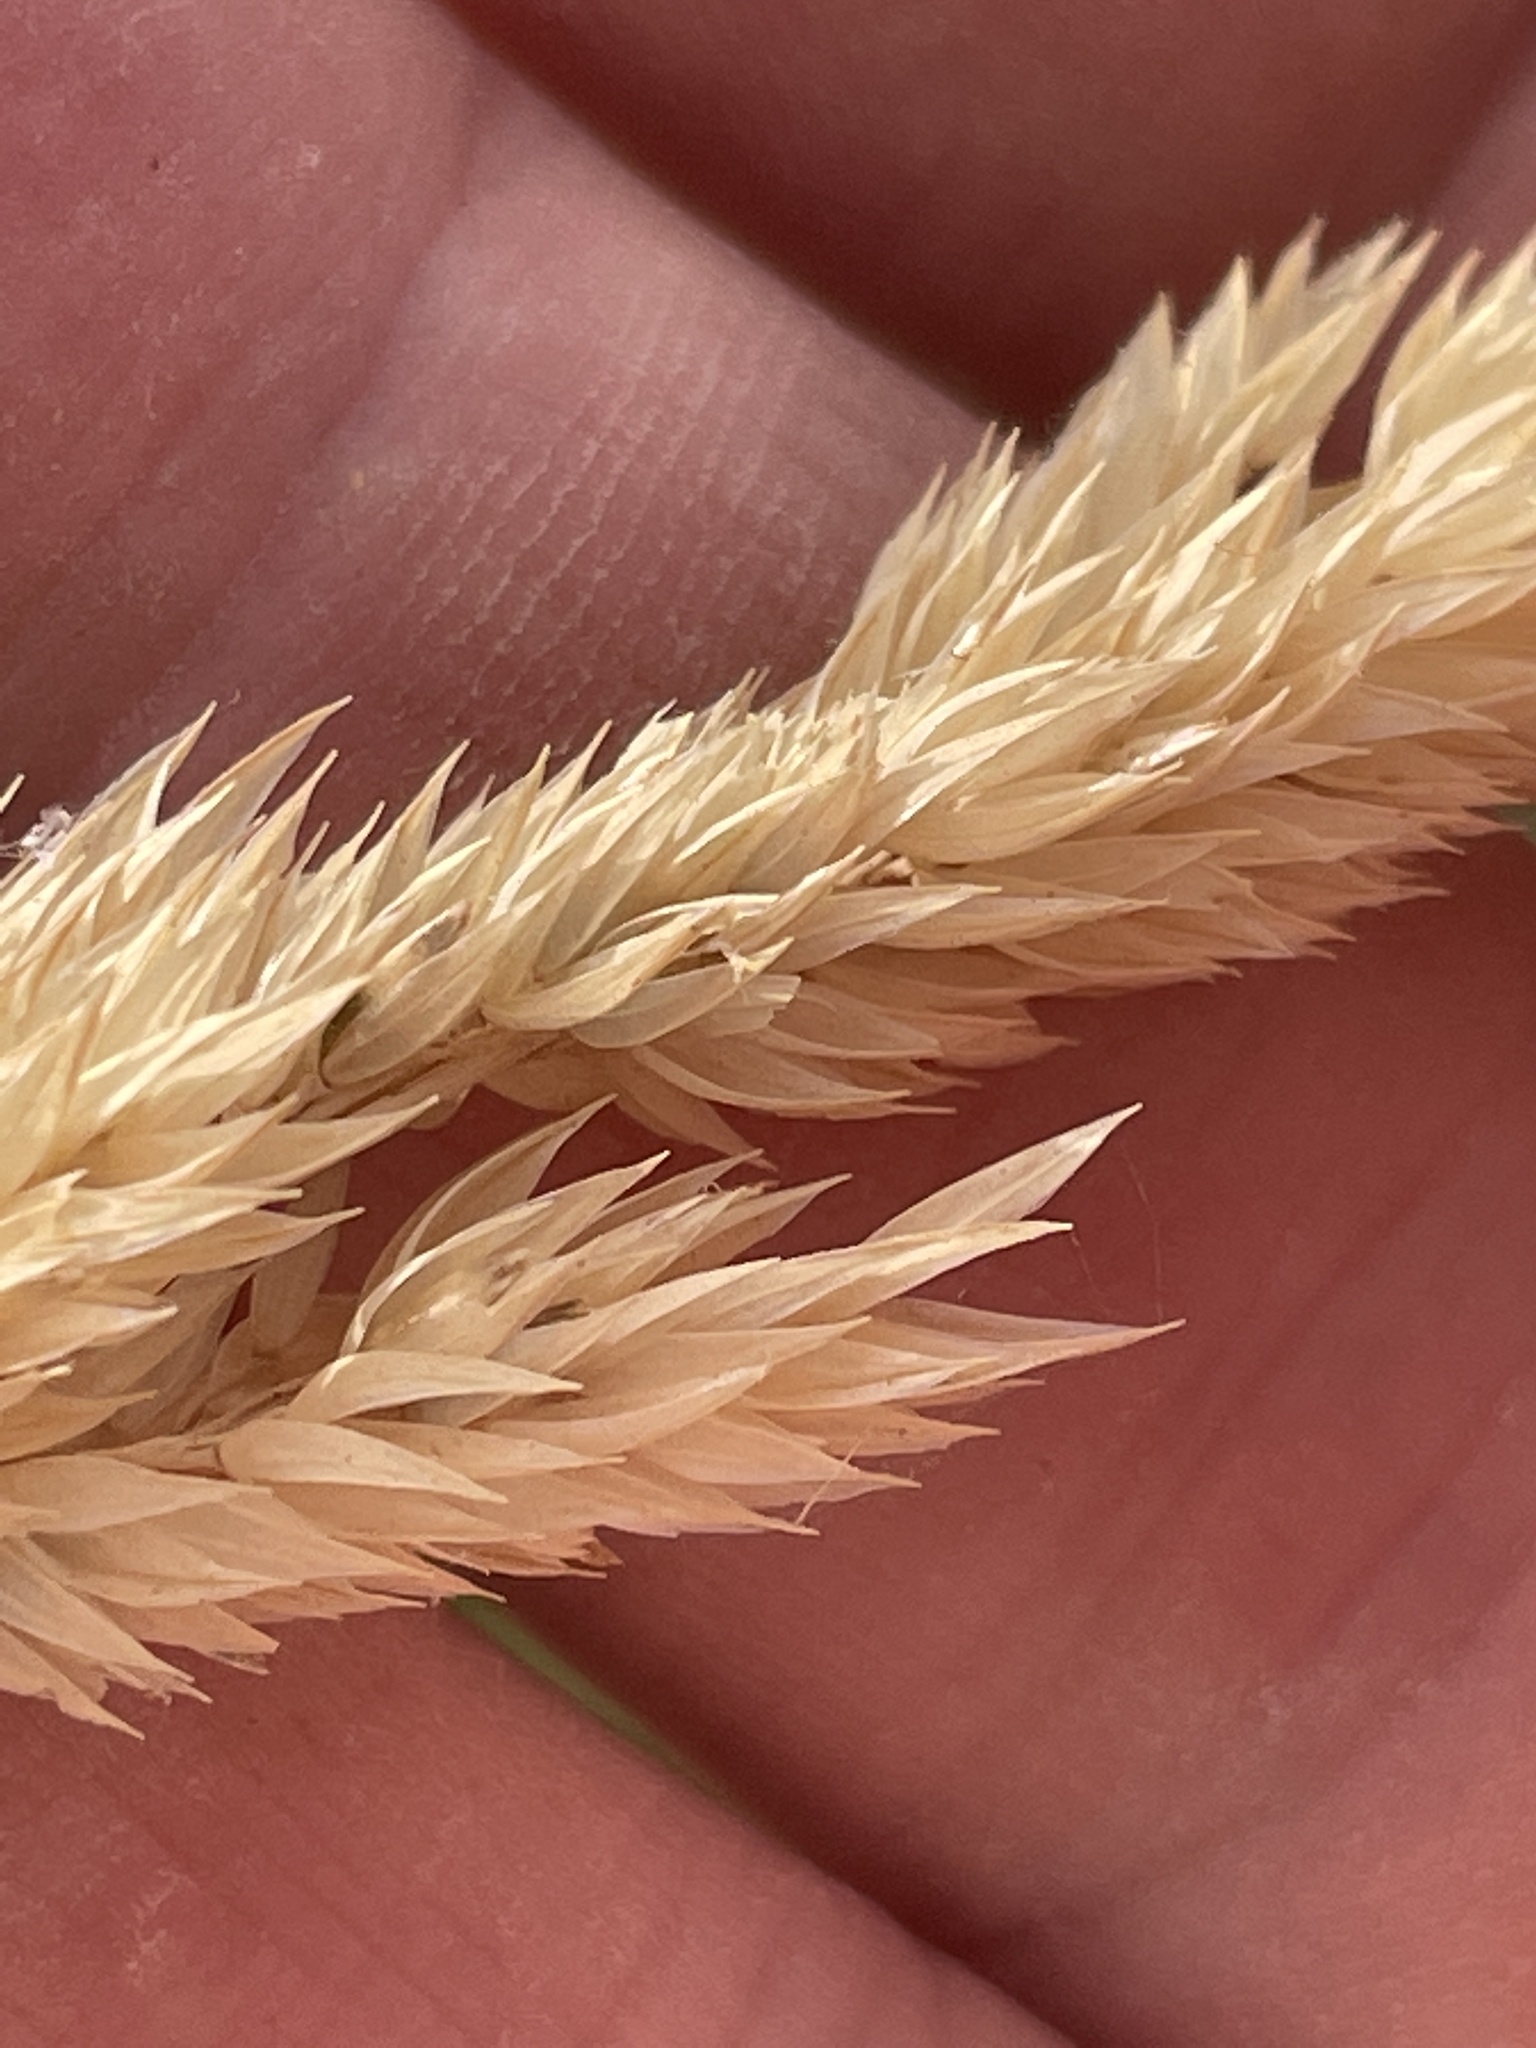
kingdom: Plantae
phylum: Tracheophyta
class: Liliopsida
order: Poales
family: Poaceae
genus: Phalaris
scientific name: Phalaris arundinacea
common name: Reed canary-grass
